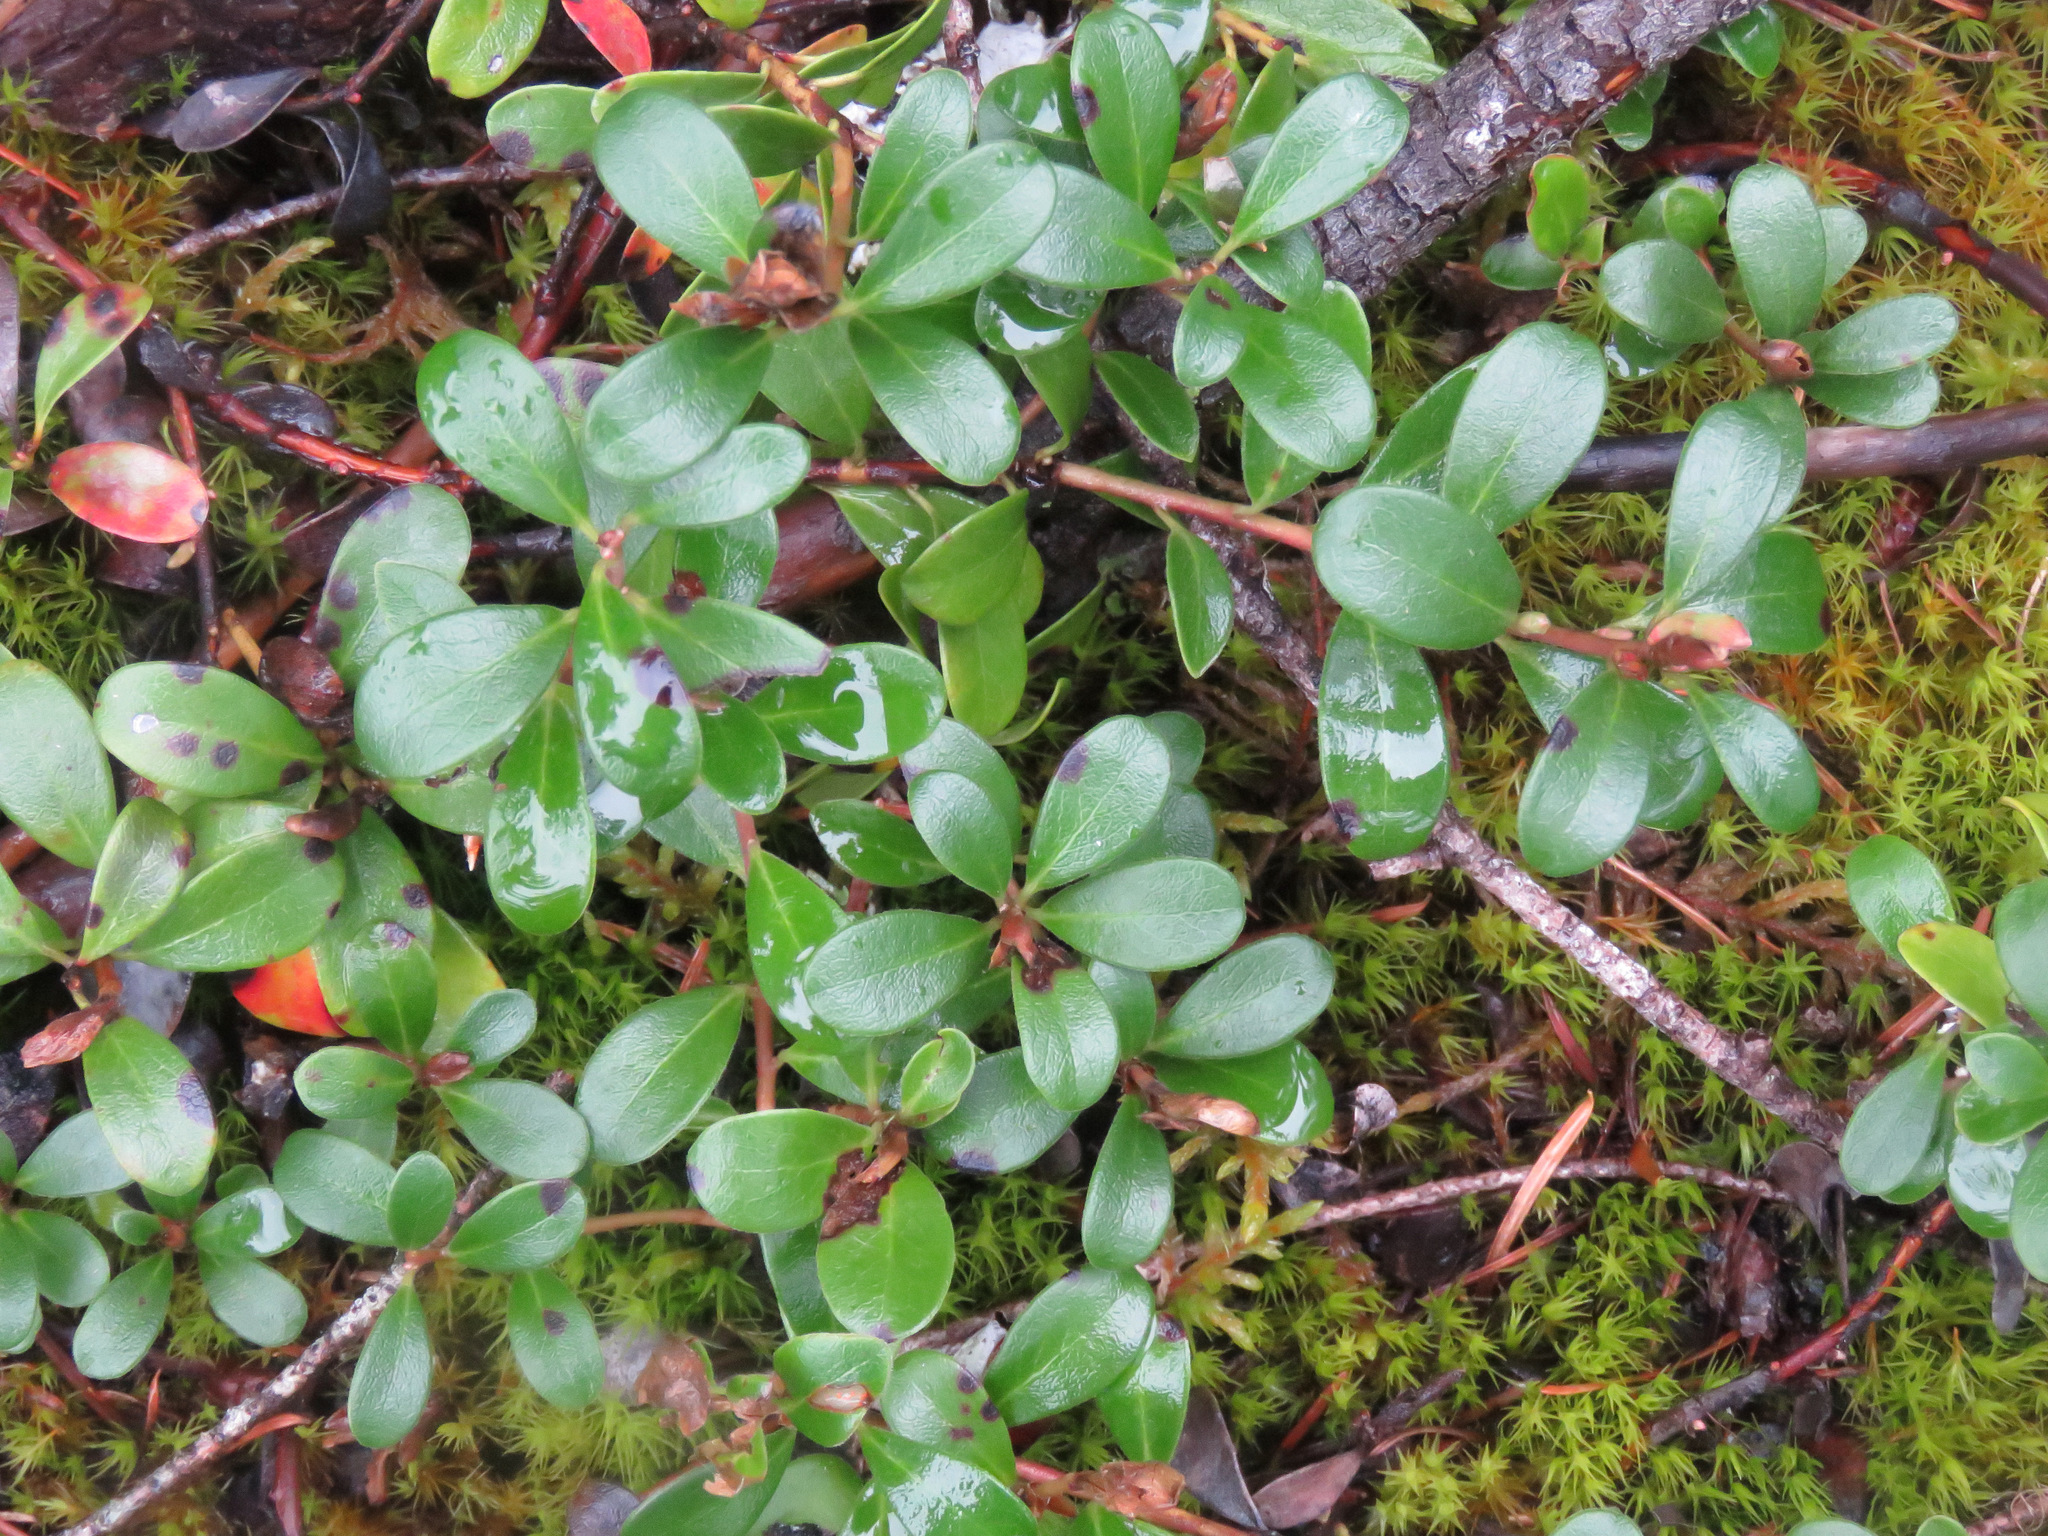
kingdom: Plantae
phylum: Tracheophyta
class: Magnoliopsida
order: Ericales
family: Ericaceae
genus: Arctostaphylos
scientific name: Arctostaphylos uva-ursi
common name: Bearberry
